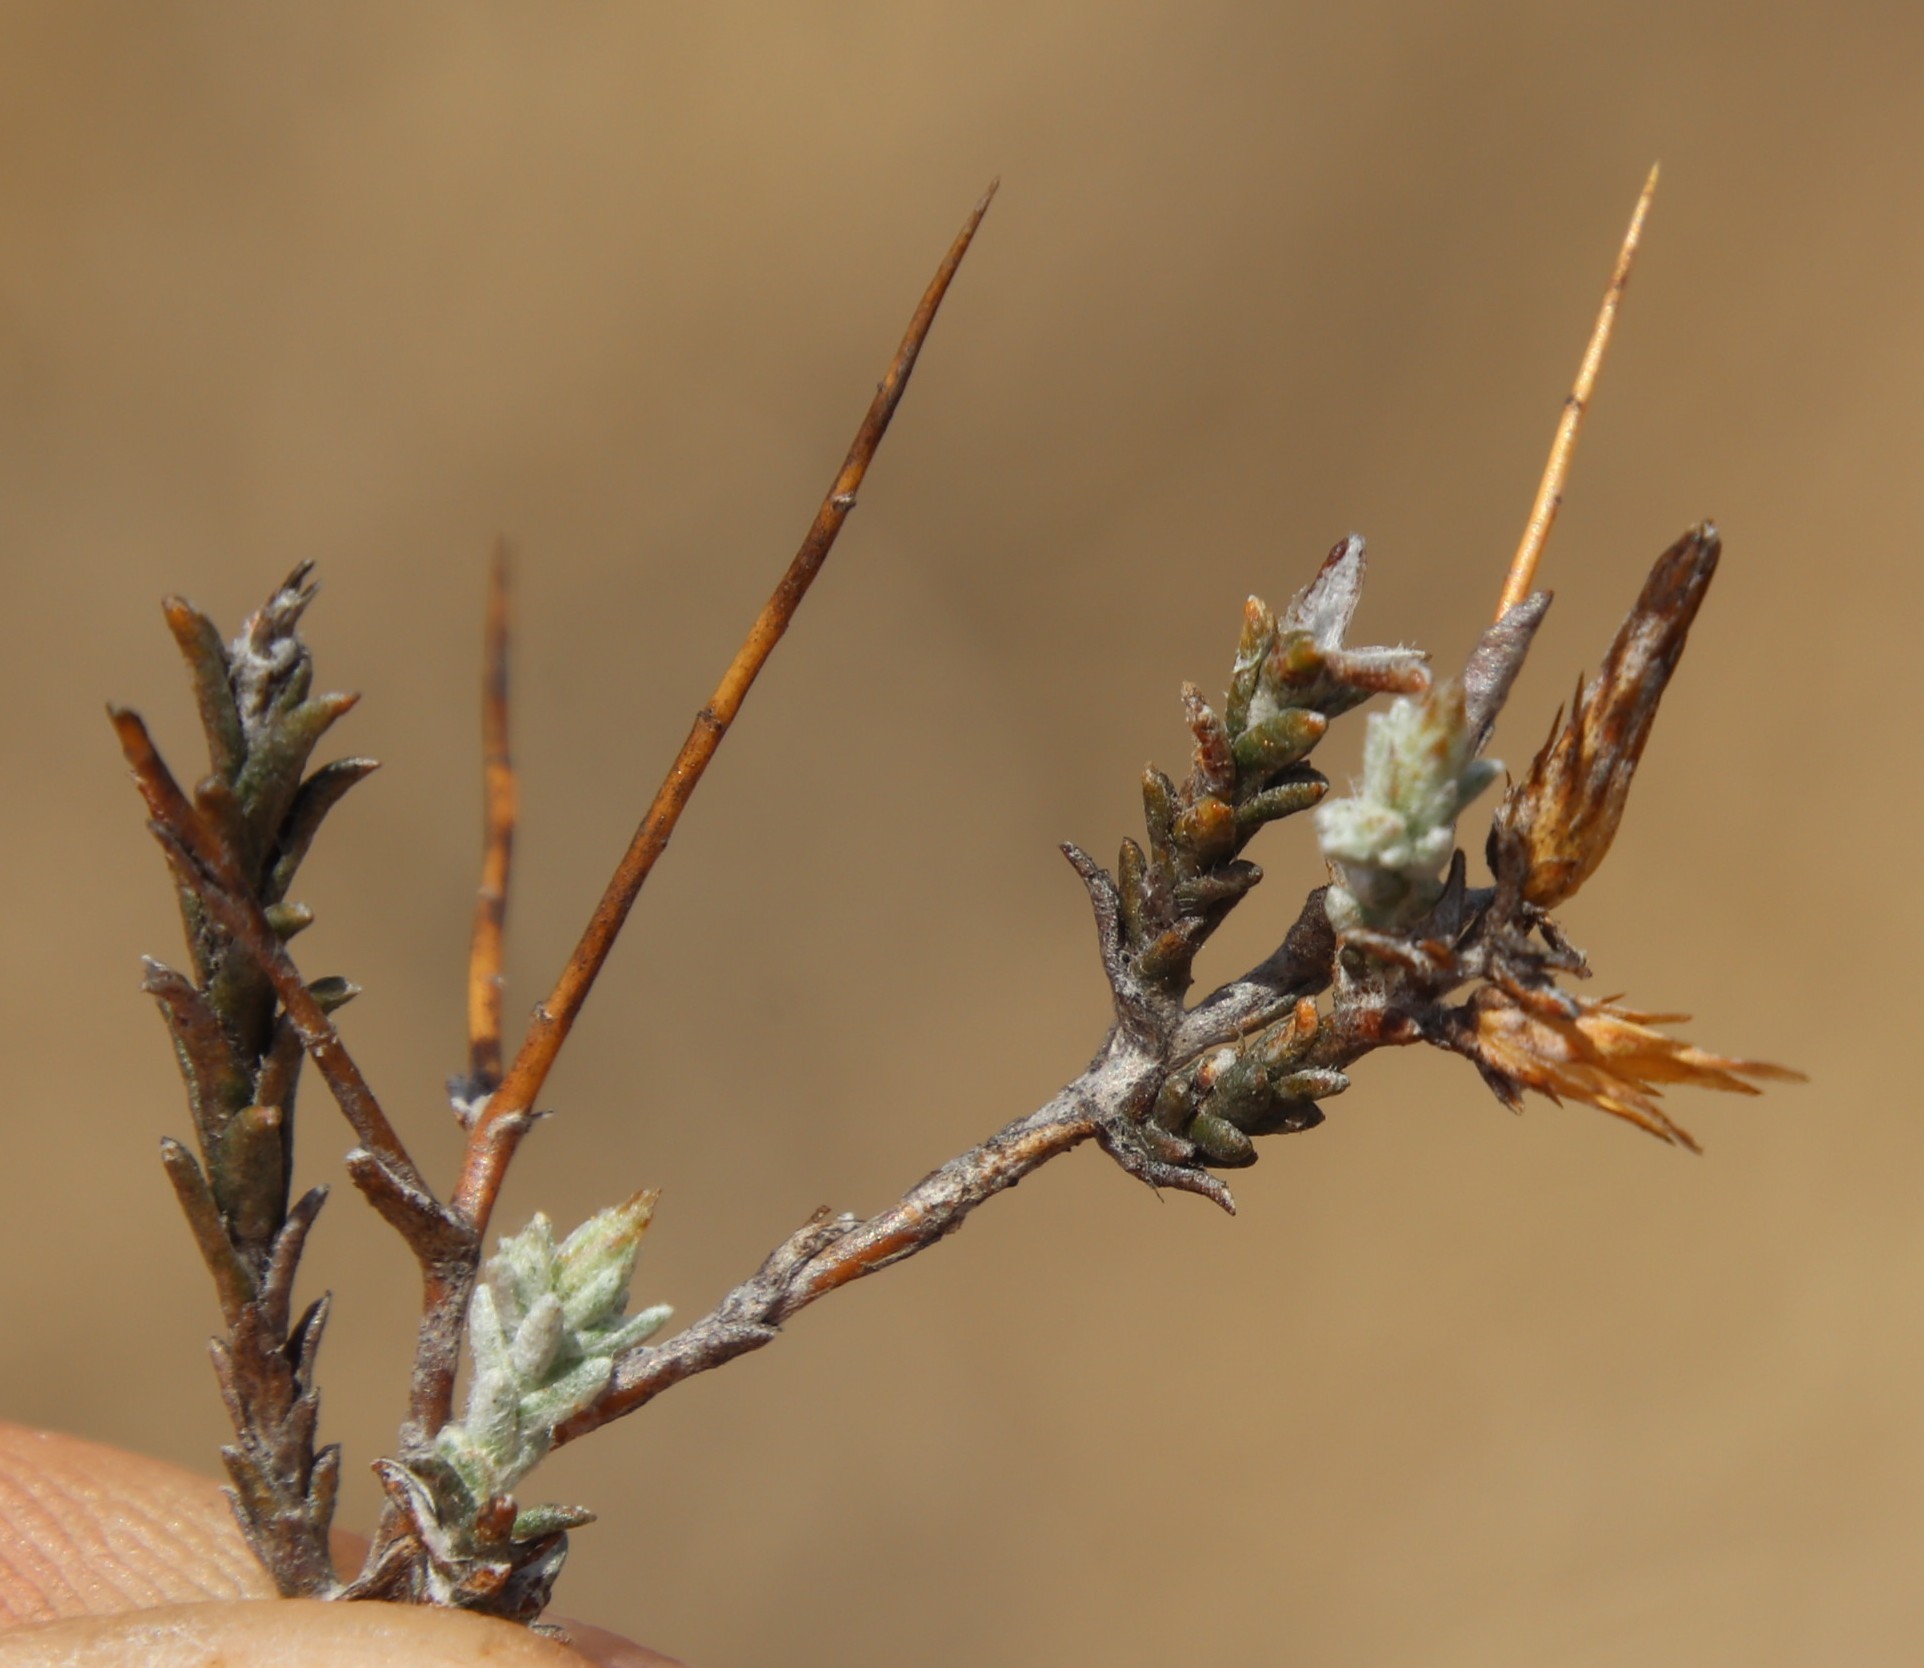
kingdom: Plantae
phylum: Tracheophyta
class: Magnoliopsida
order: Asterales
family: Asteraceae
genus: Pterothrix
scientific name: Pterothrix spinescens
